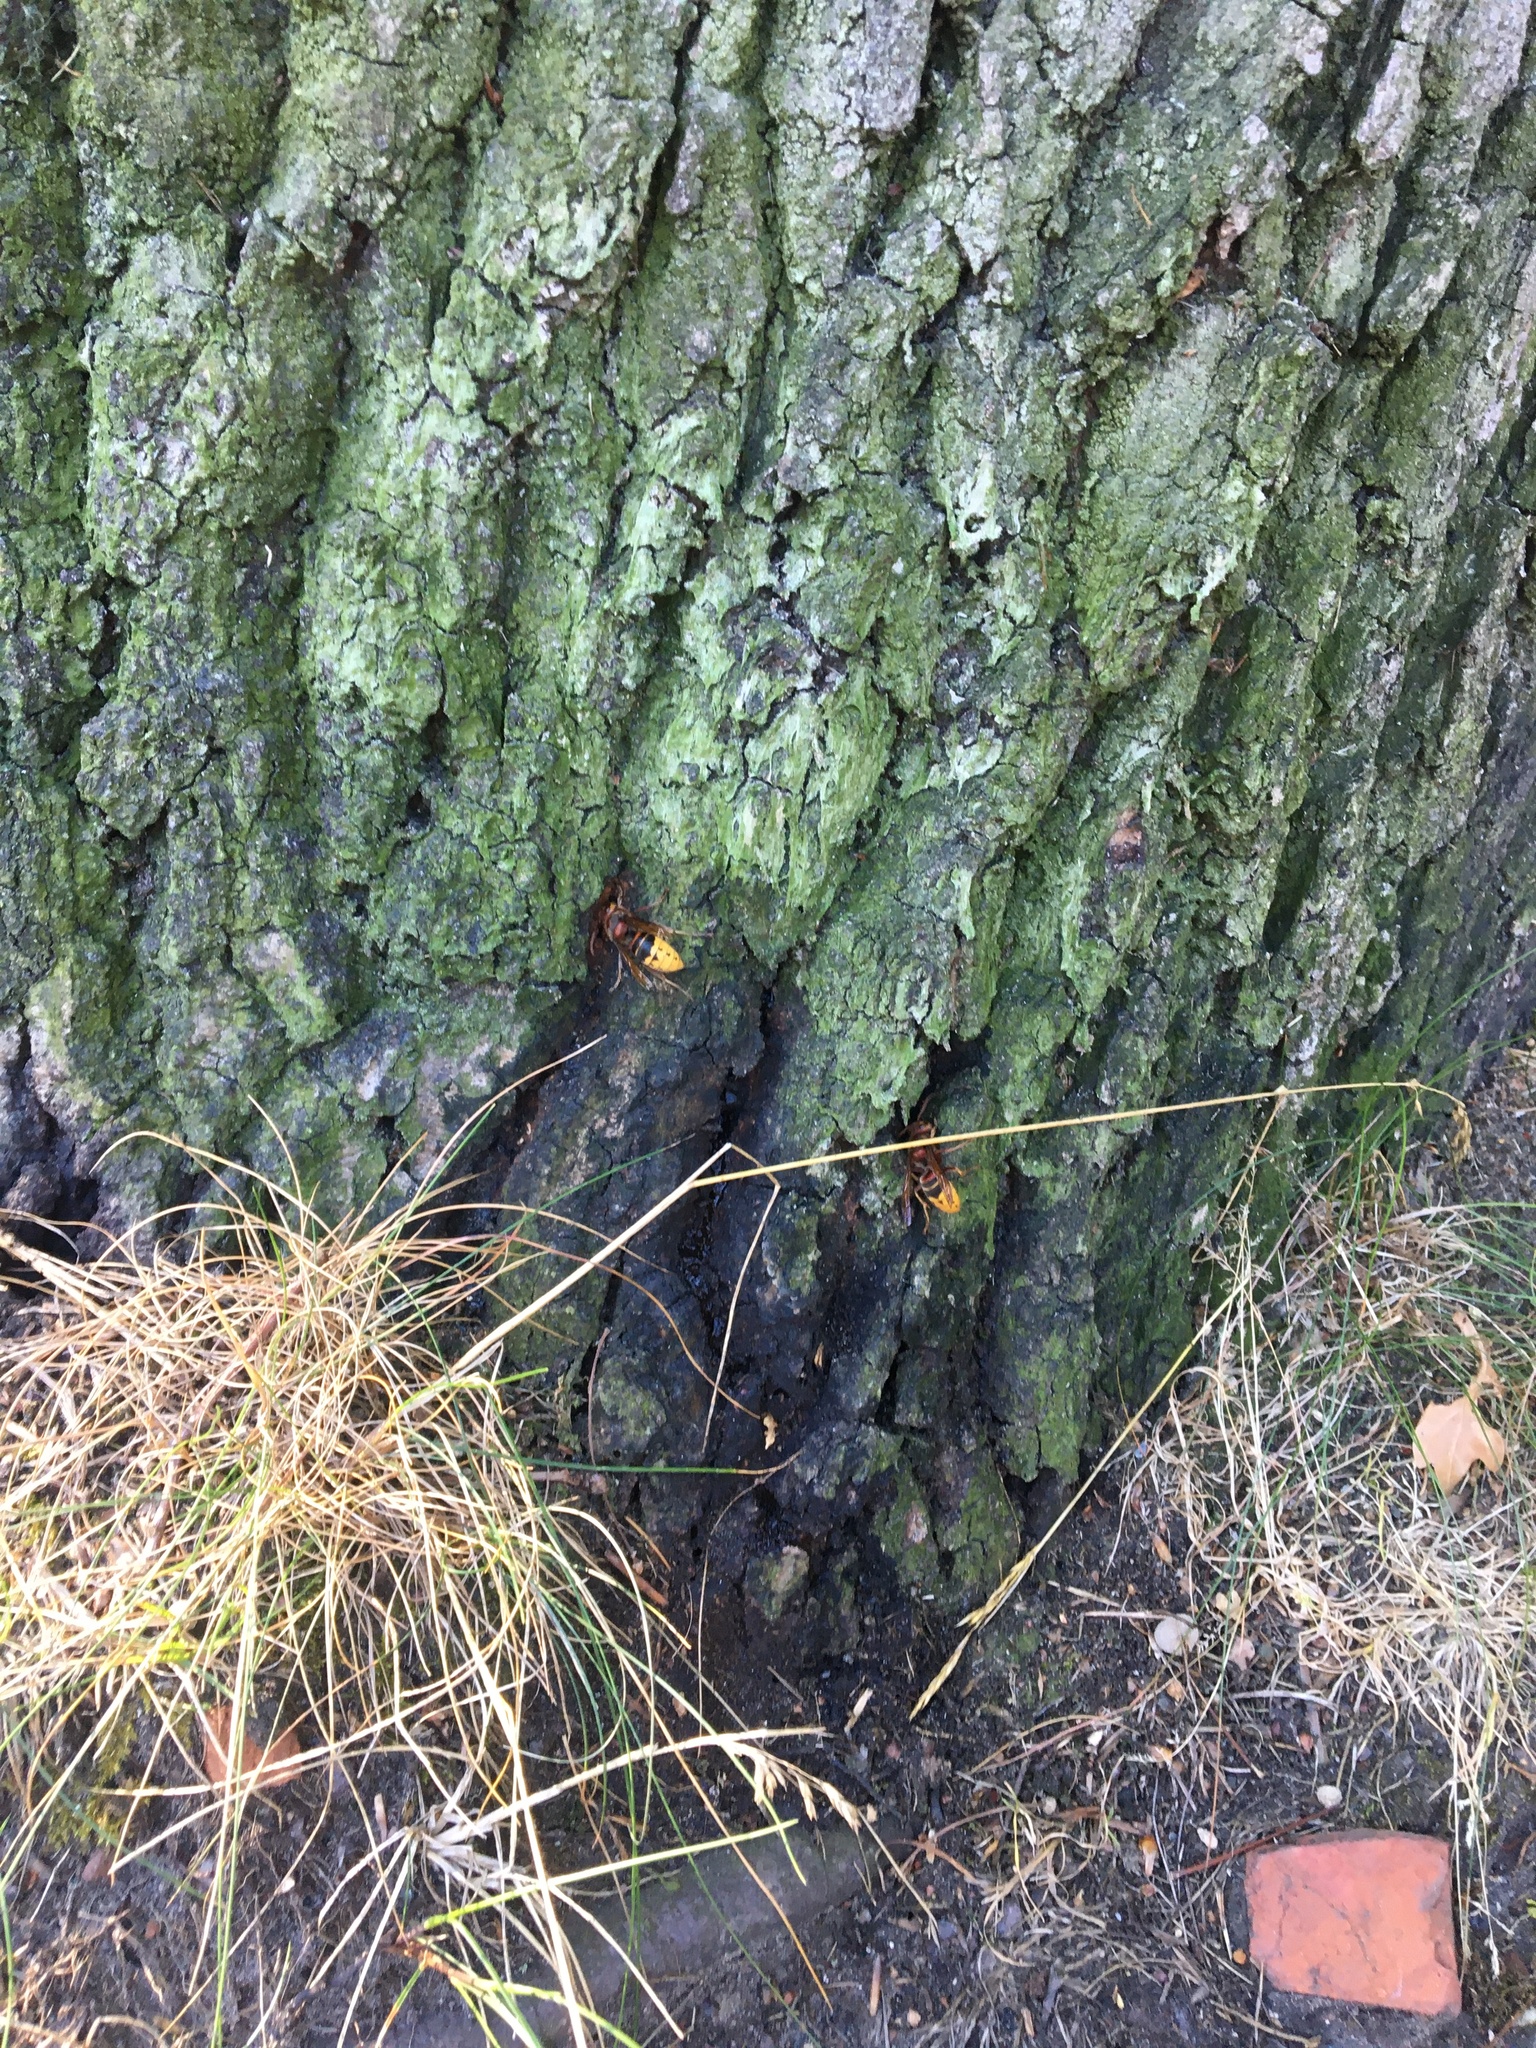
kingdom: Animalia
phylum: Arthropoda
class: Insecta
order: Hymenoptera
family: Vespidae
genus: Vespa
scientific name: Vespa crabro
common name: Hornet
